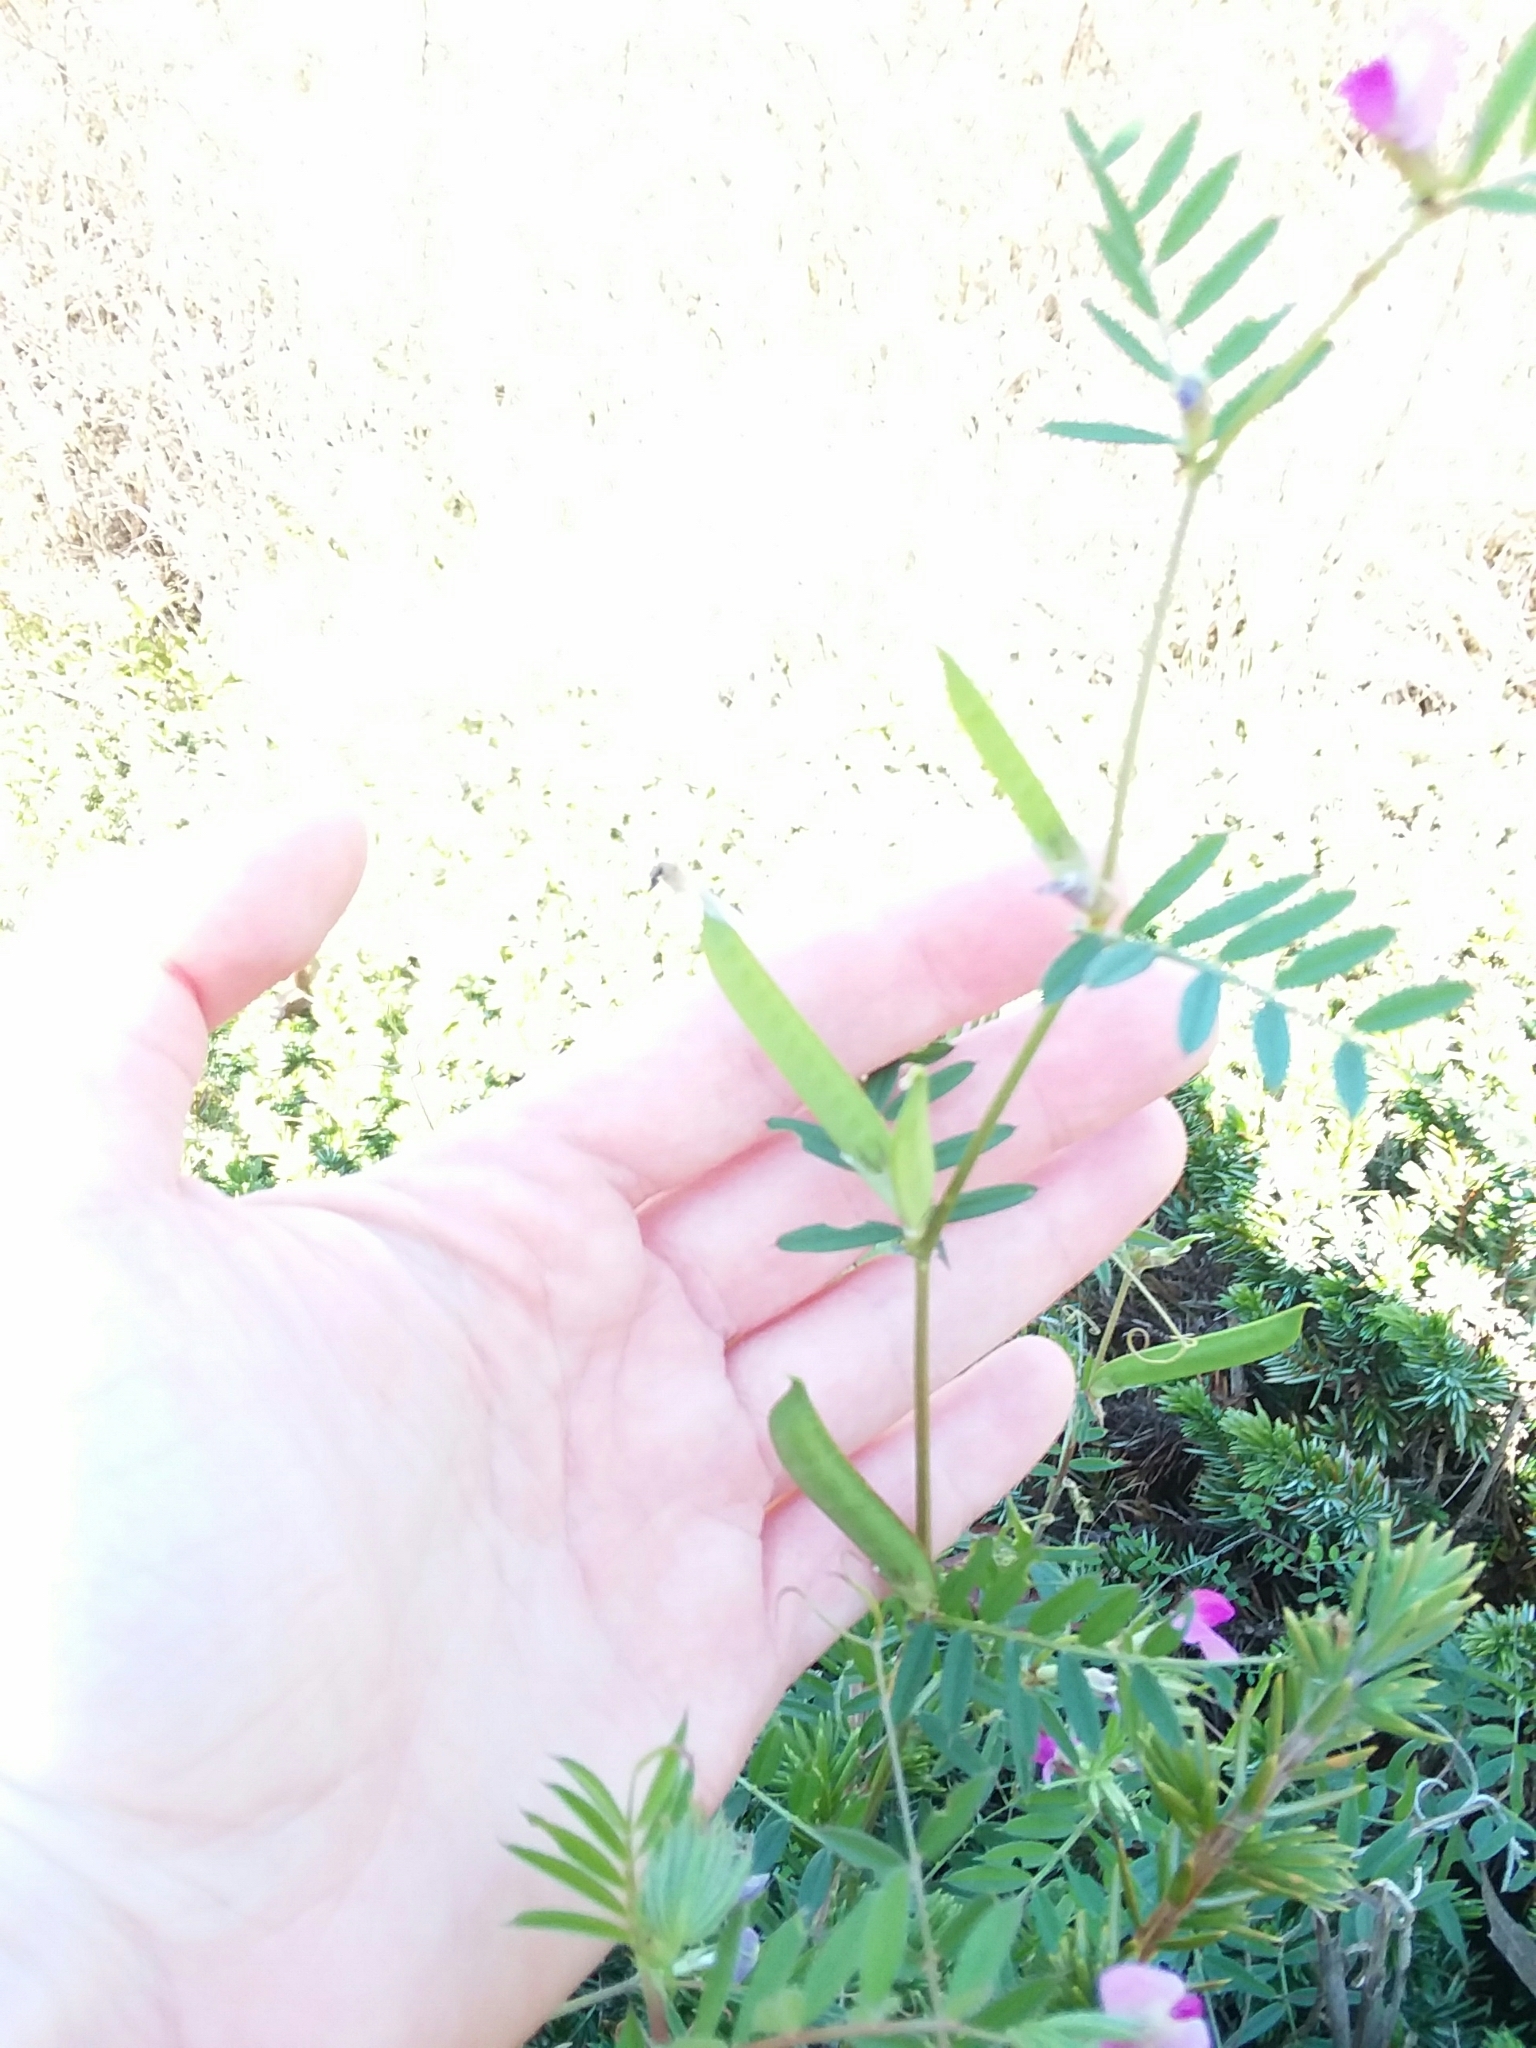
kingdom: Plantae
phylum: Tracheophyta
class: Magnoliopsida
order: Fabales
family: Fabaceae
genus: Vicia
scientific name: Vicia sativa
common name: Garden vetch
